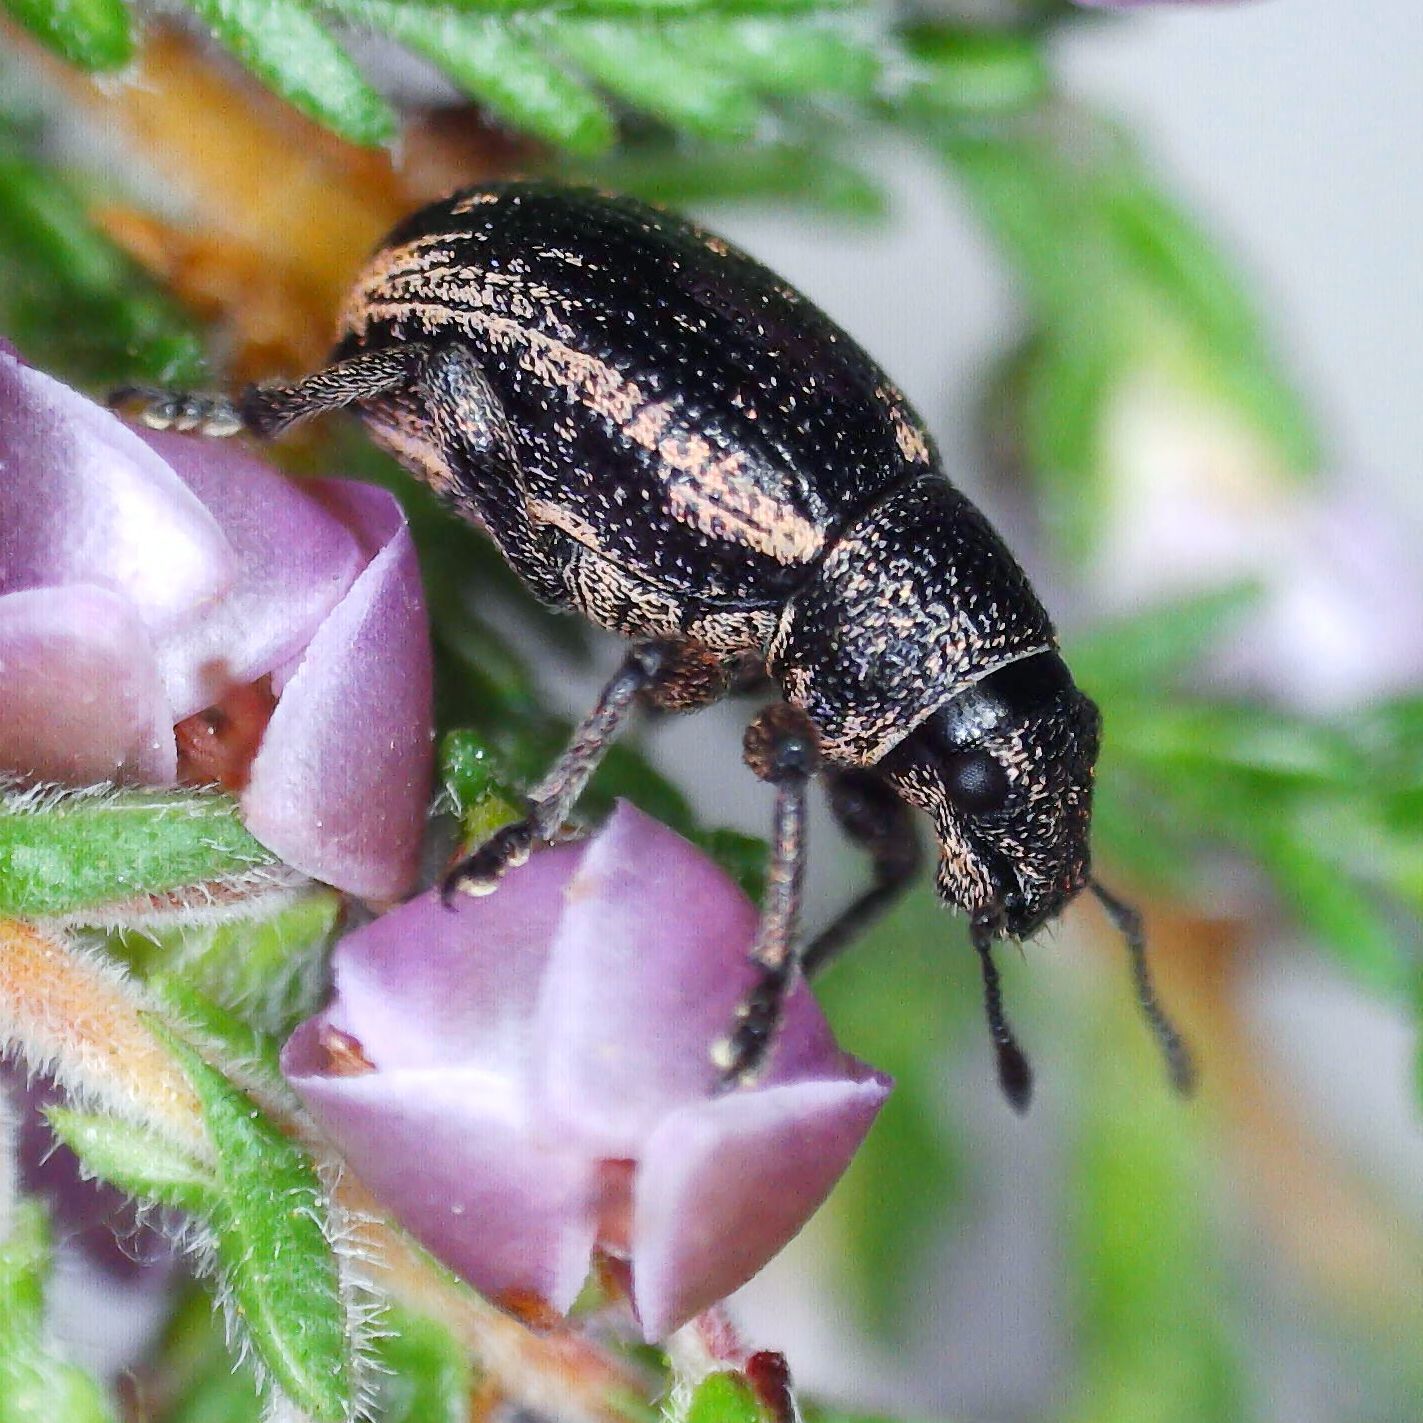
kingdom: Animalia
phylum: Arthropoda
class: Insecta
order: Coleoptera
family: Curculionidae
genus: Strophosoma
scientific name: Strophosoma sus
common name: Heather weevil
